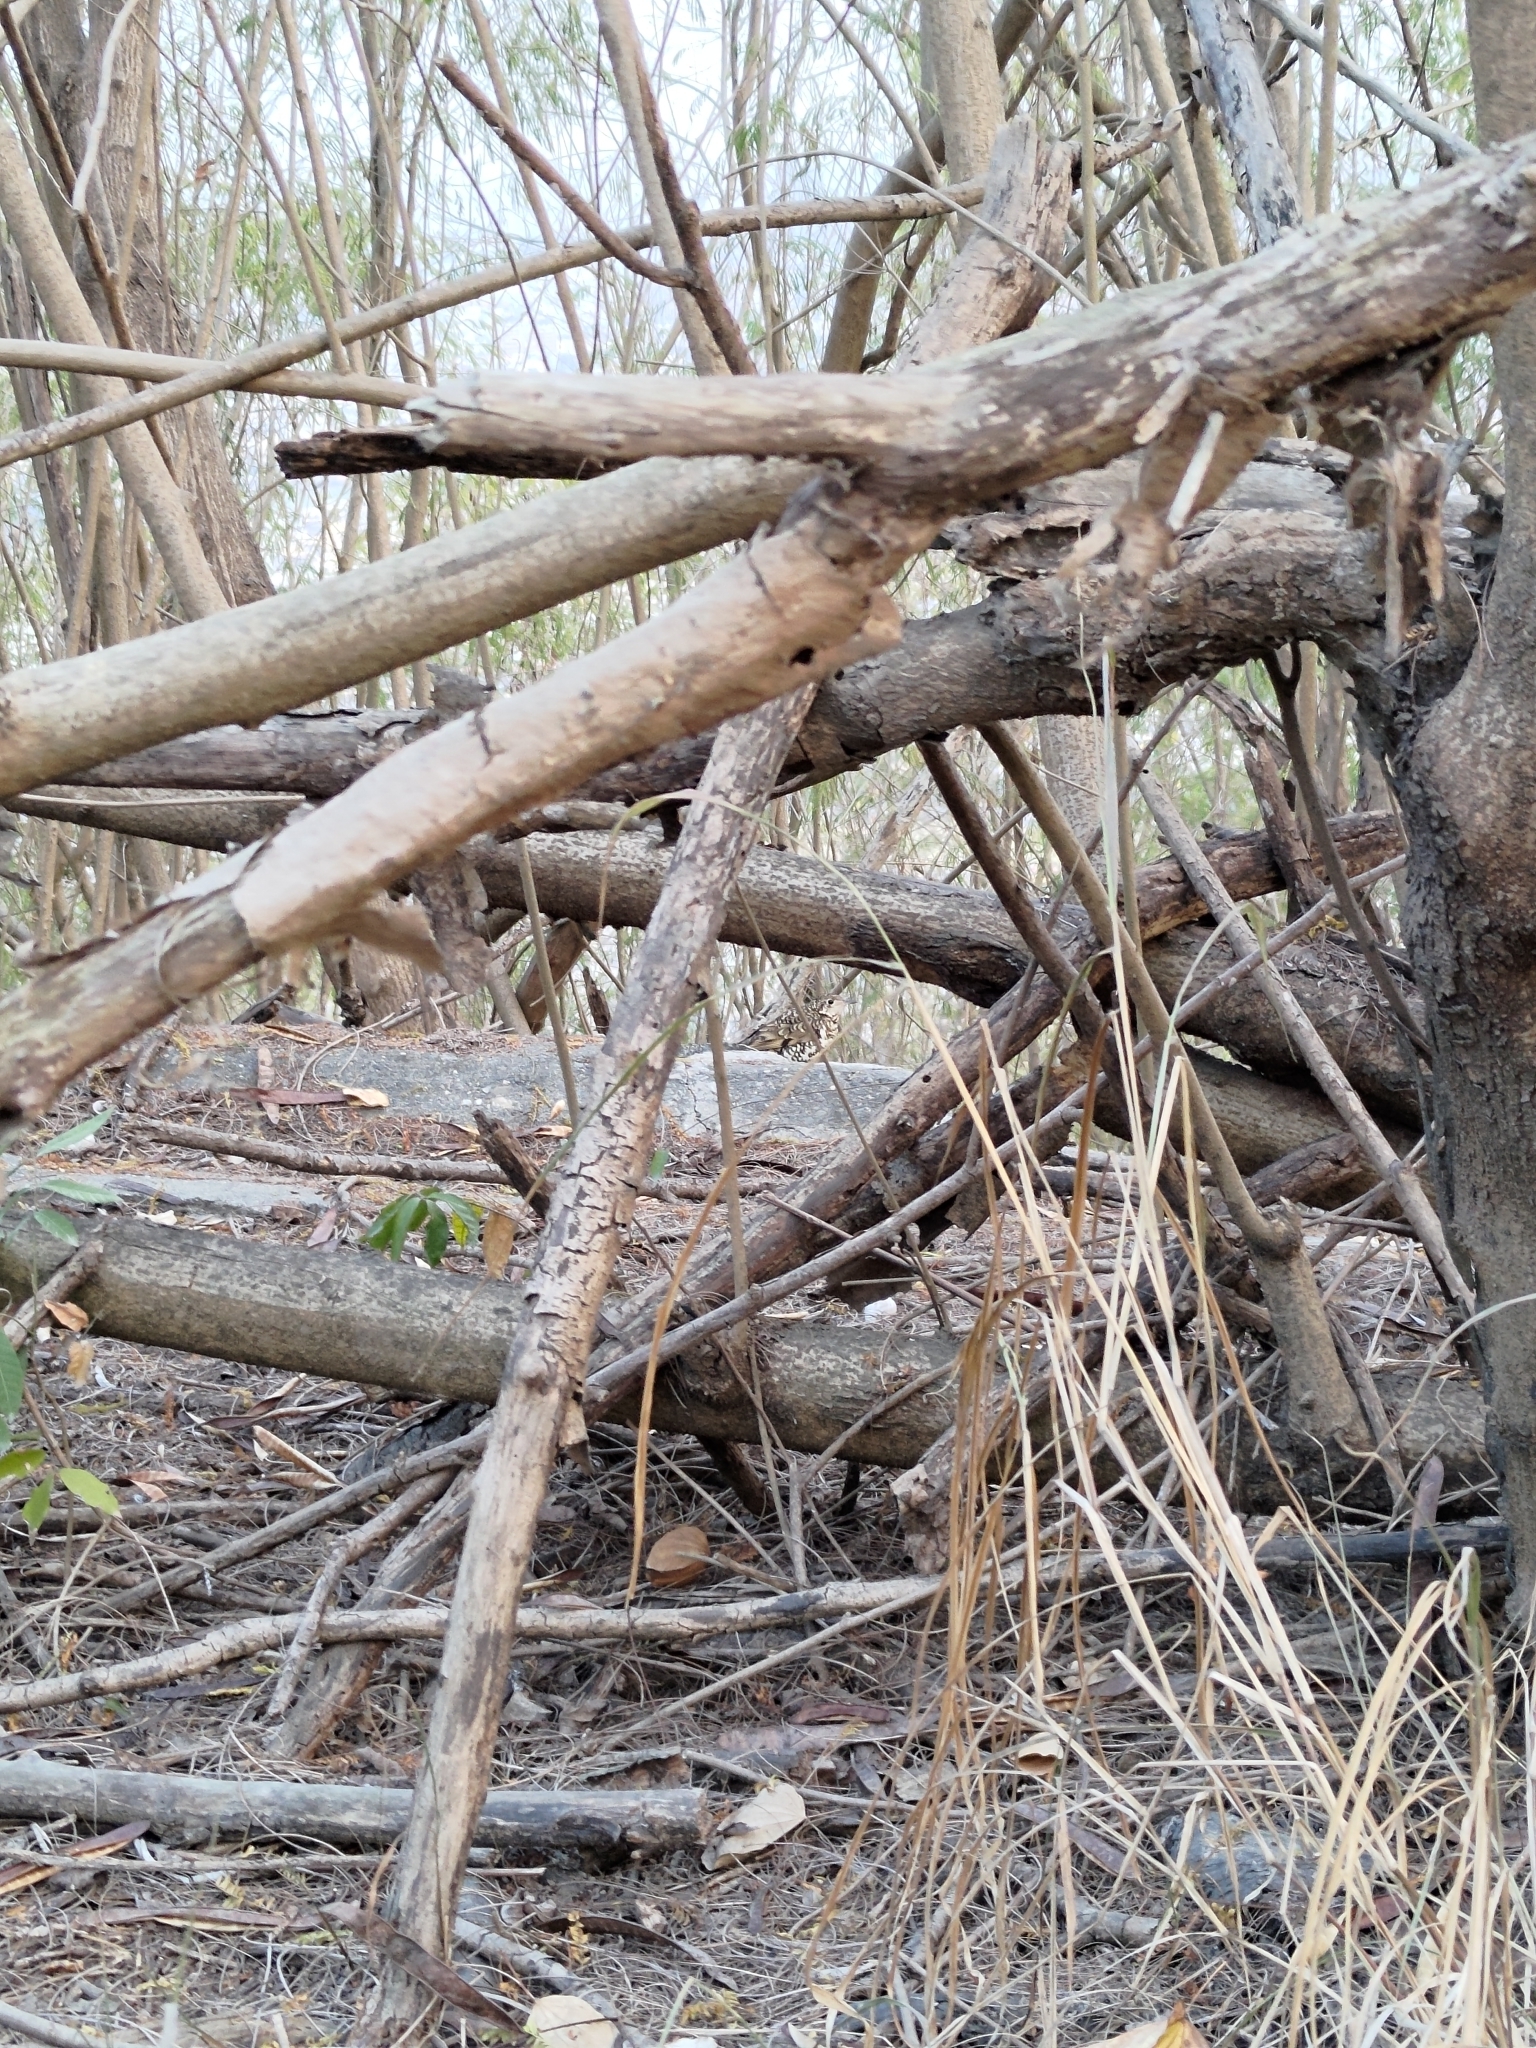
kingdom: Animalia
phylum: Chordata
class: Aves
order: Passeriformes
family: Turdidae
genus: Zoothera
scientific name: Zoothera aurea
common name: White's thrush
